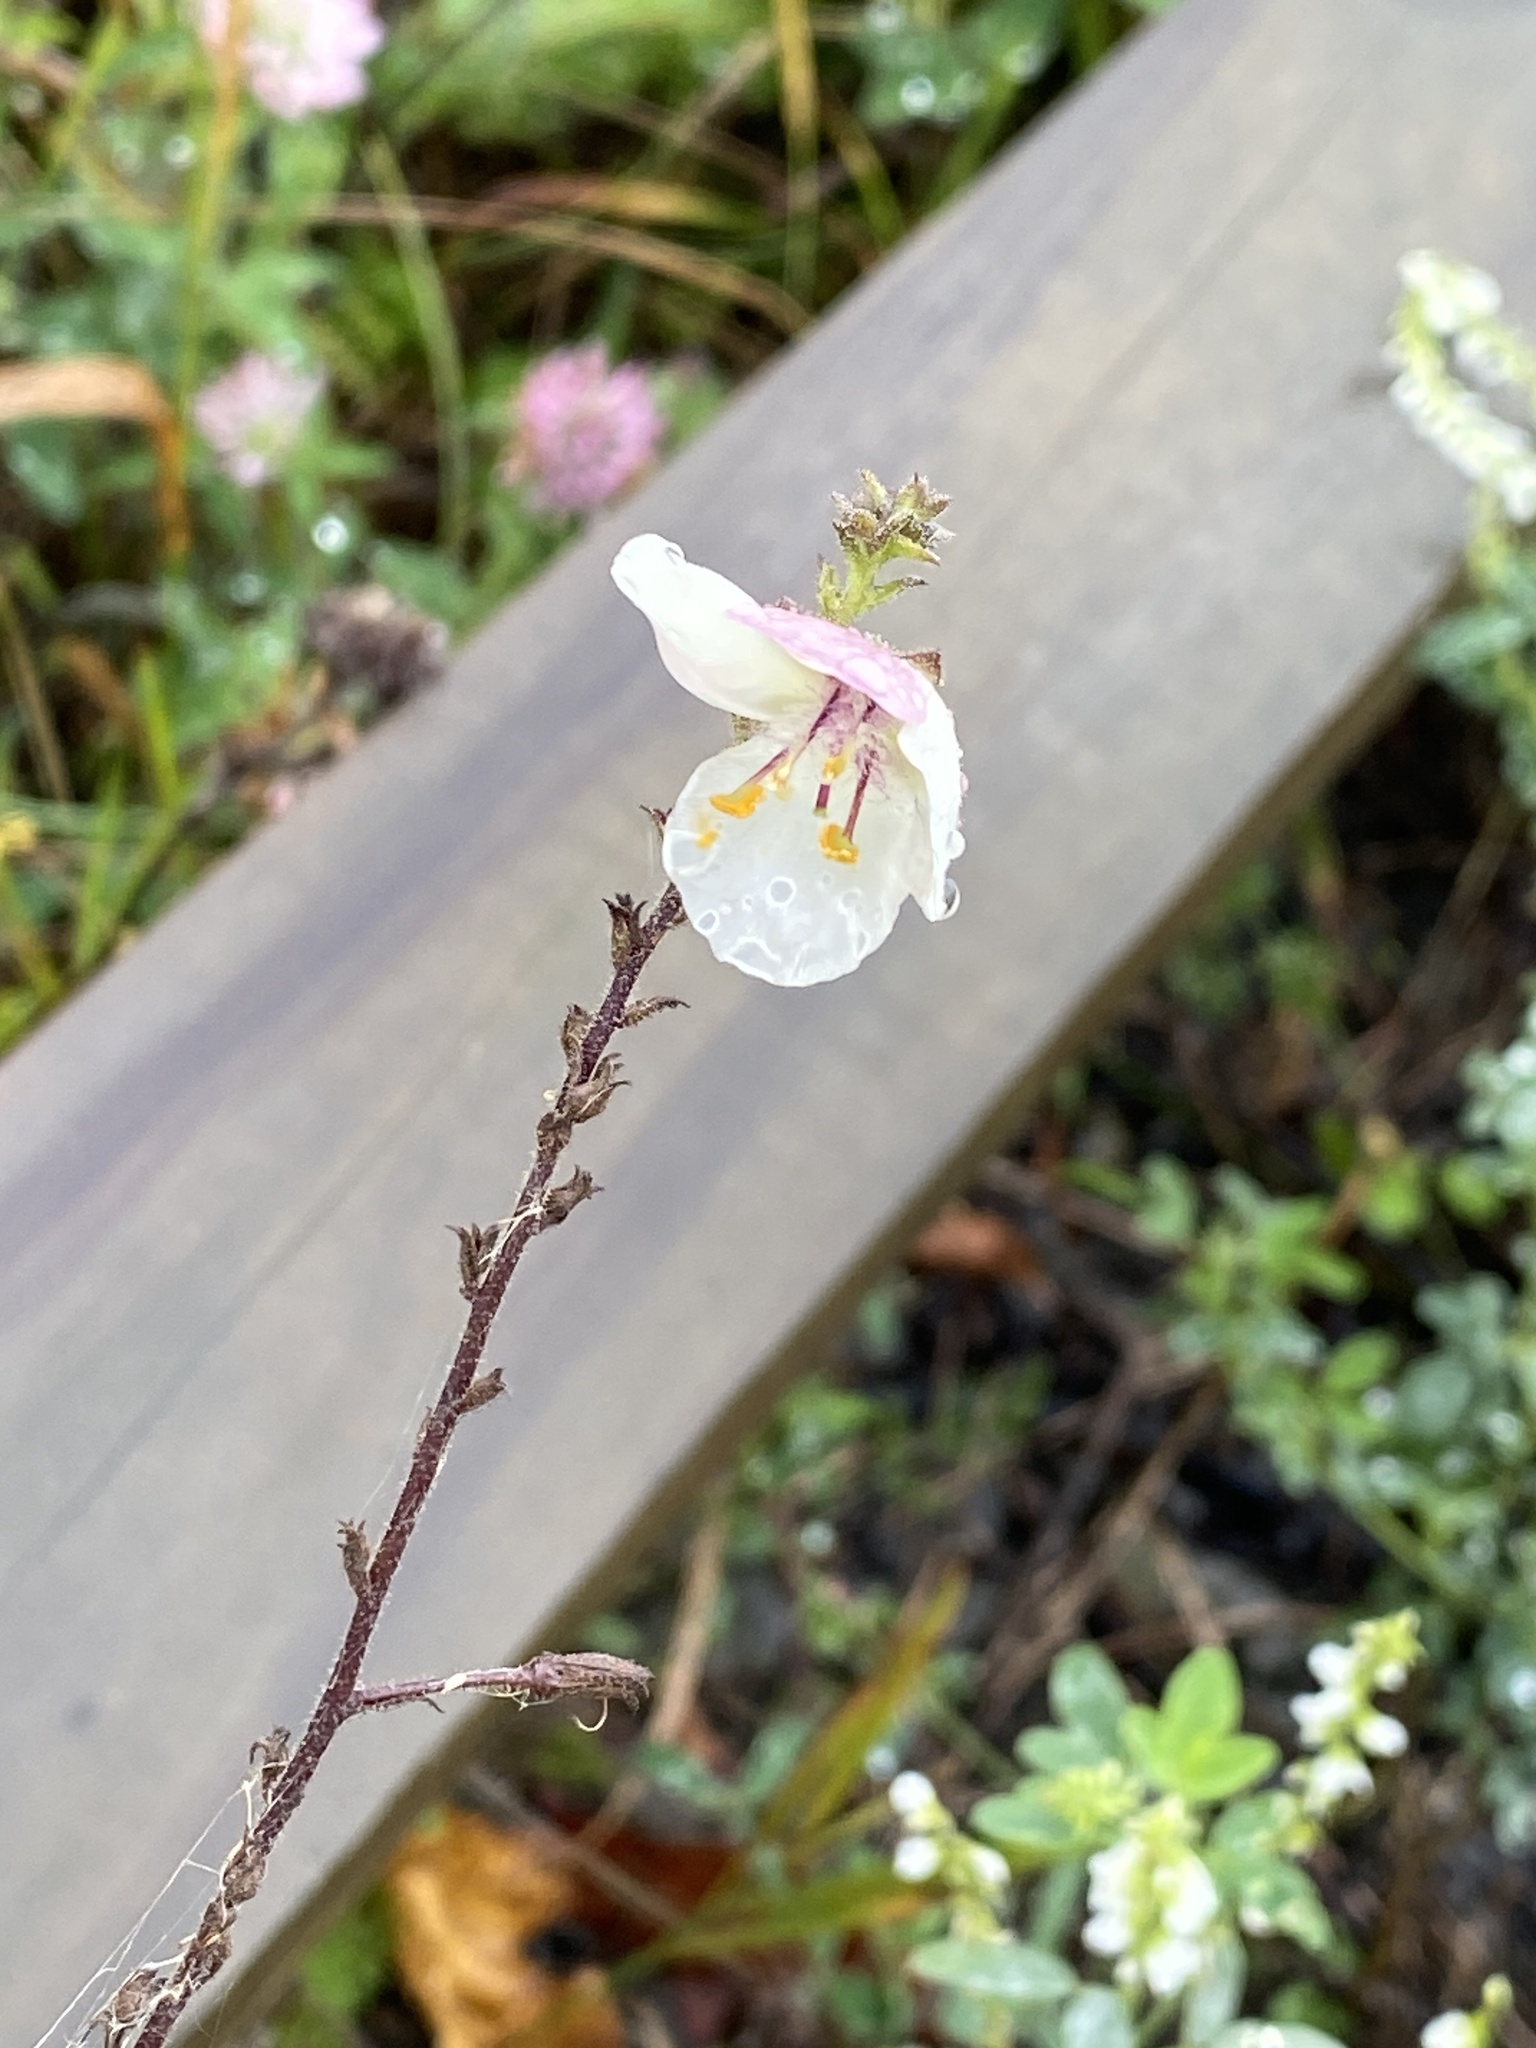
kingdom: Plantae
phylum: Tracheophyta
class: Magnoliopsida
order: Lamiales
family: Scrophulariaceae
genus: Verbascum
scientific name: Verbascum blattaria
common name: Moth mullein
